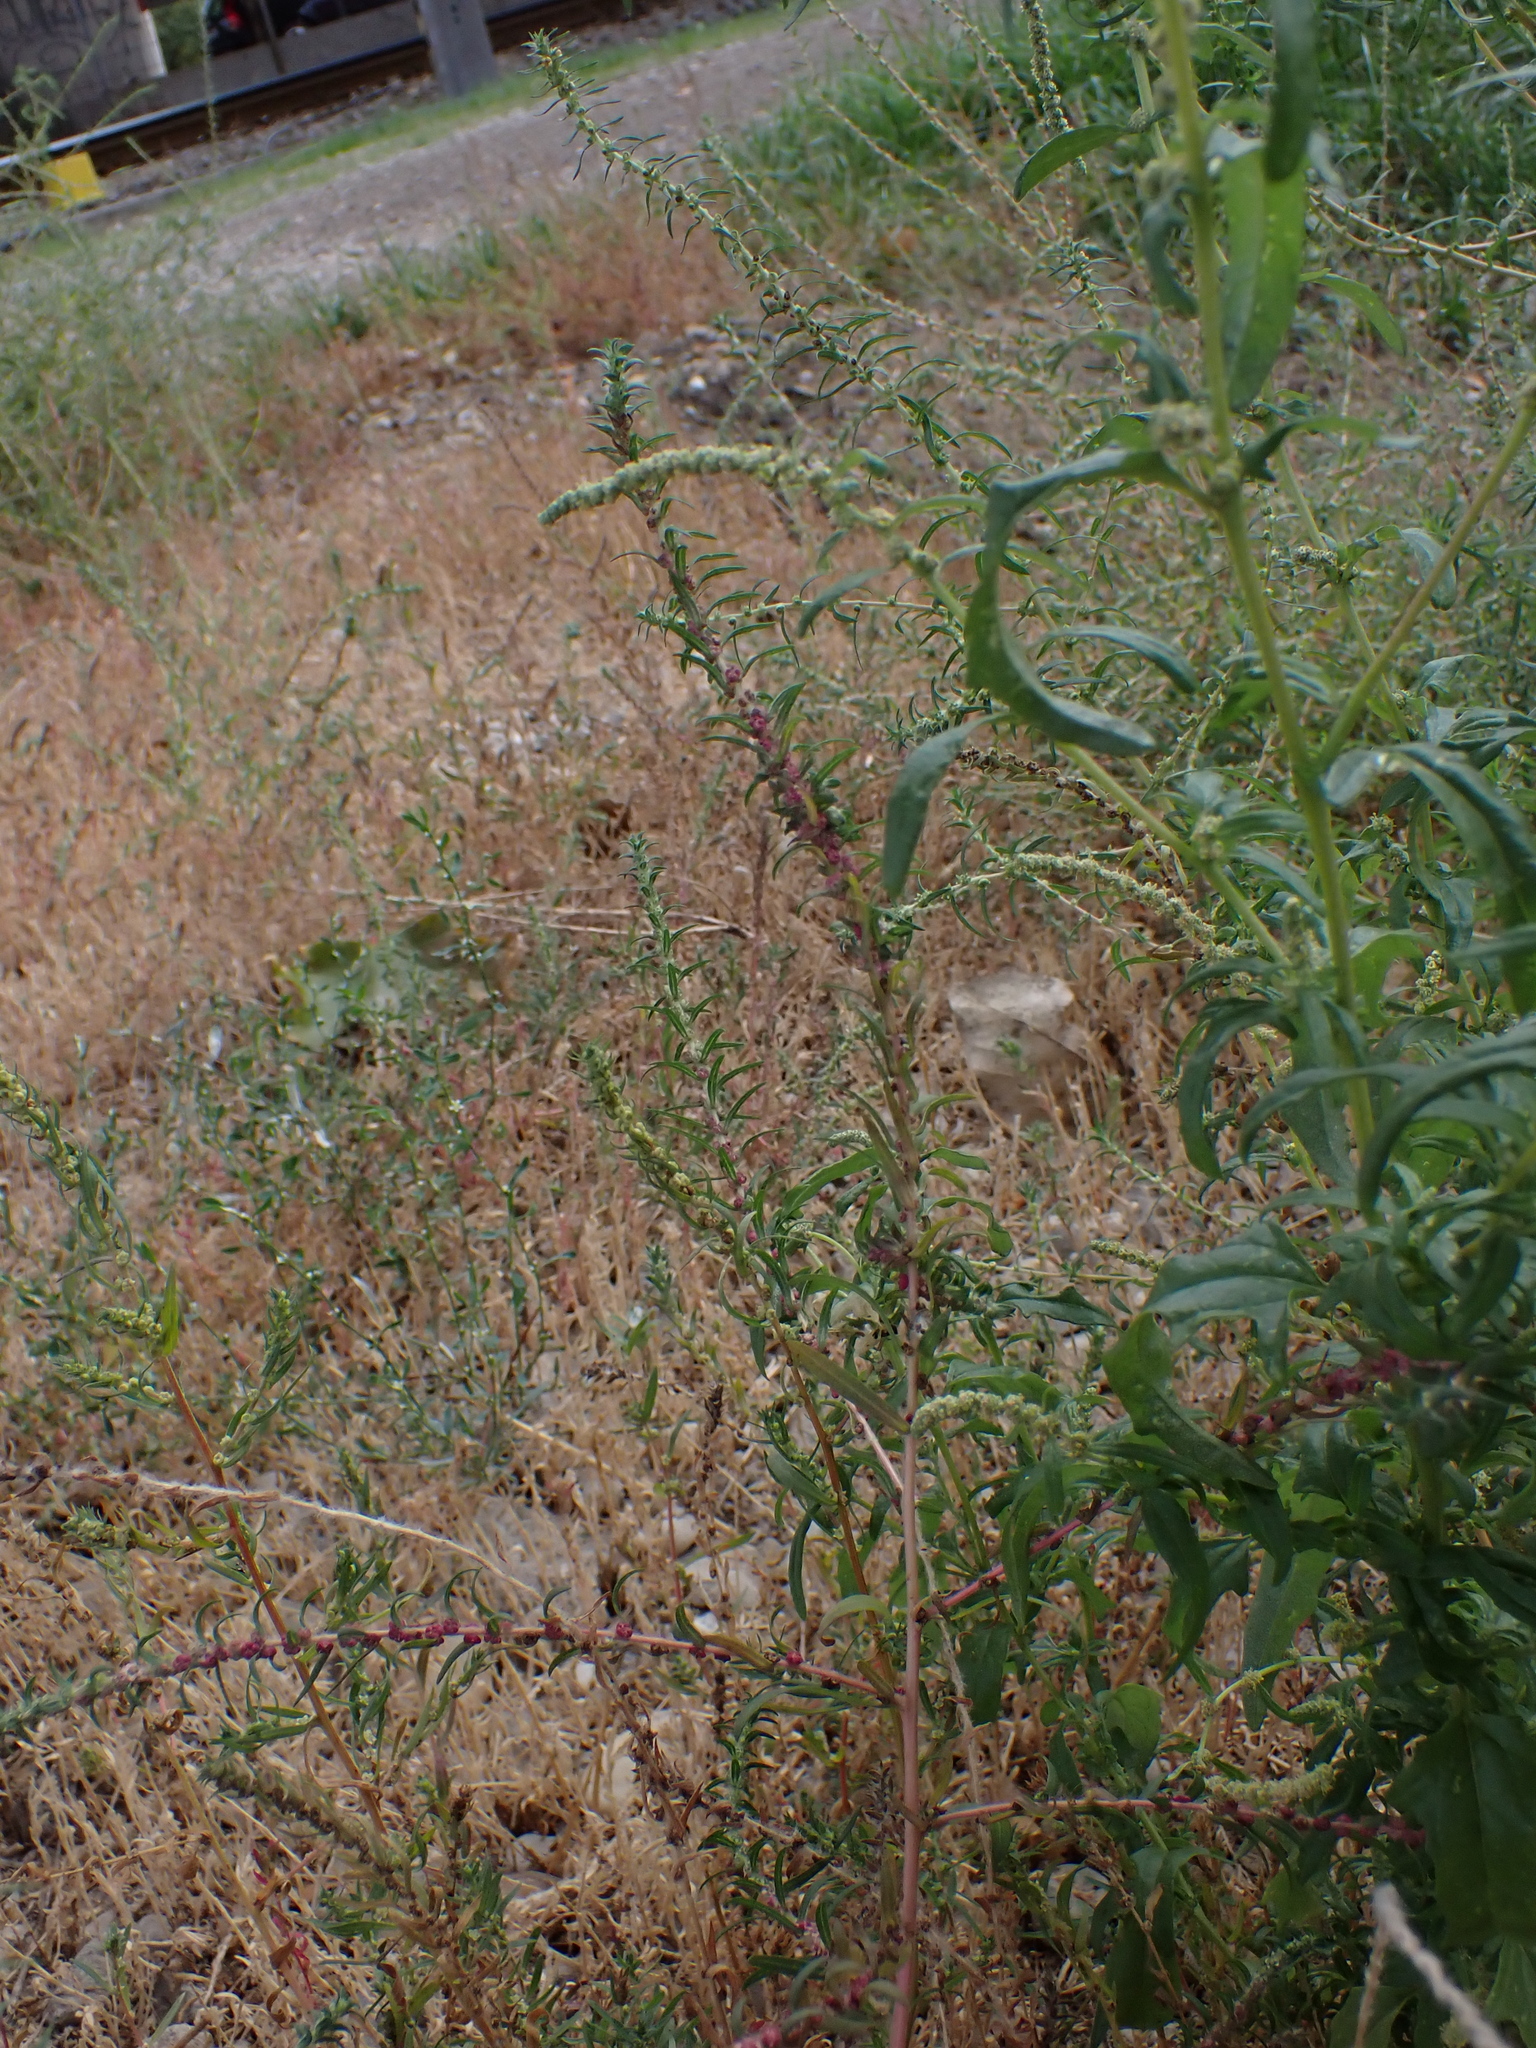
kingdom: Plantae
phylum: Tracheophyta
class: Magnoliopsida
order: Caryophyllales
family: Amaranthaceae
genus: Bassia
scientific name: Bassia scoparia
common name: Belvedere
